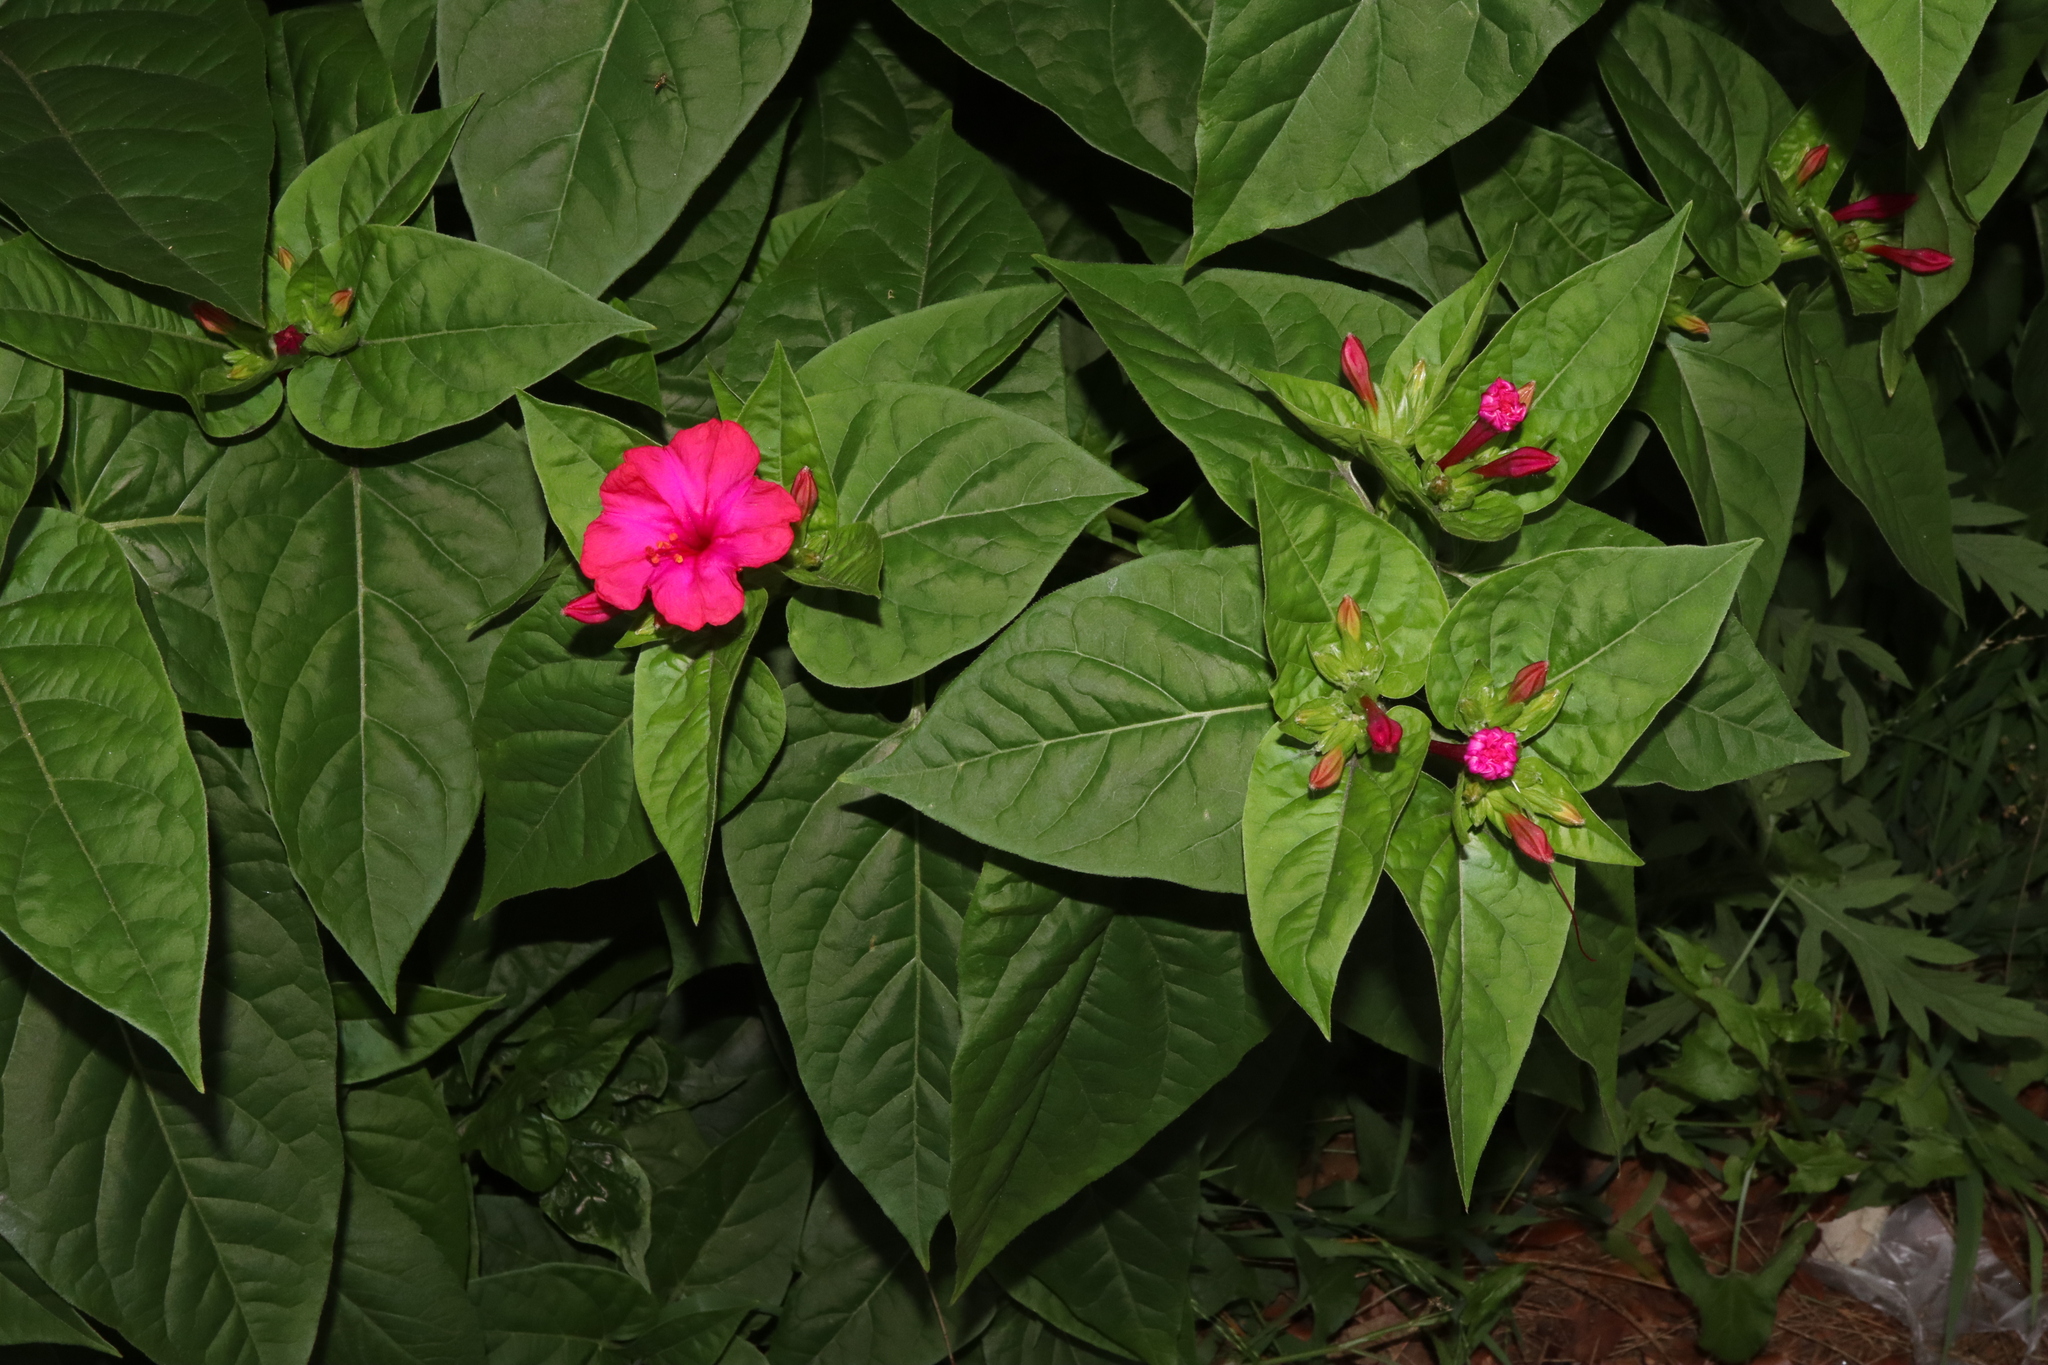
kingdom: Plantae
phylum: Tracheophyta
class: Magnoliopsida
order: Caryophyllales
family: Nyctaginaceae
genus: Mirabilis
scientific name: Mirabilis jalapa
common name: Marvel-of-peru
